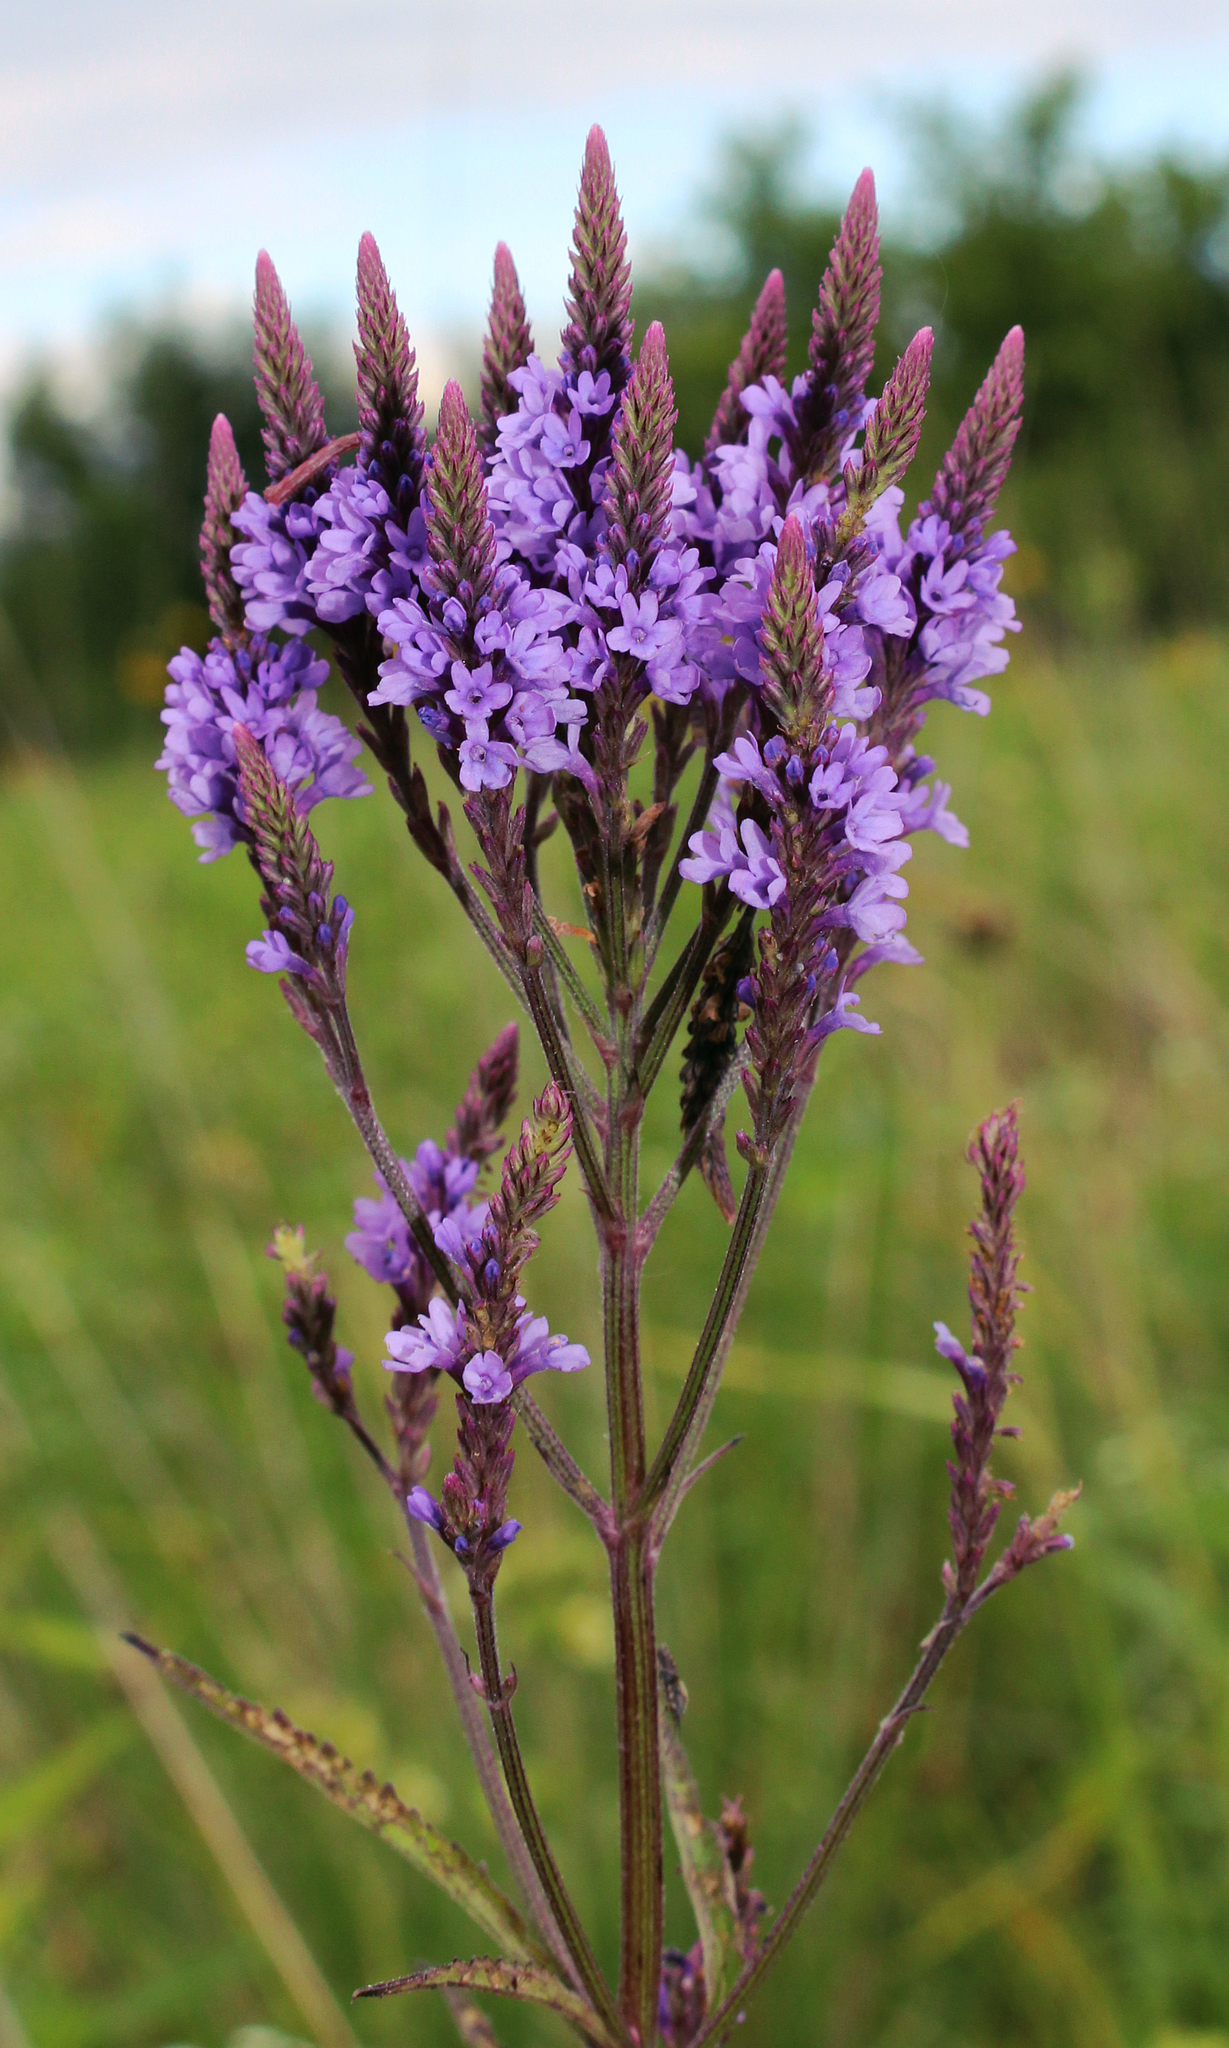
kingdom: Plantae
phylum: Tracheophyta
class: Magnoliopsida
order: Lamiales
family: Verbenaceae
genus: Verbena
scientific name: Verbena hastata
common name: American blue vervain
